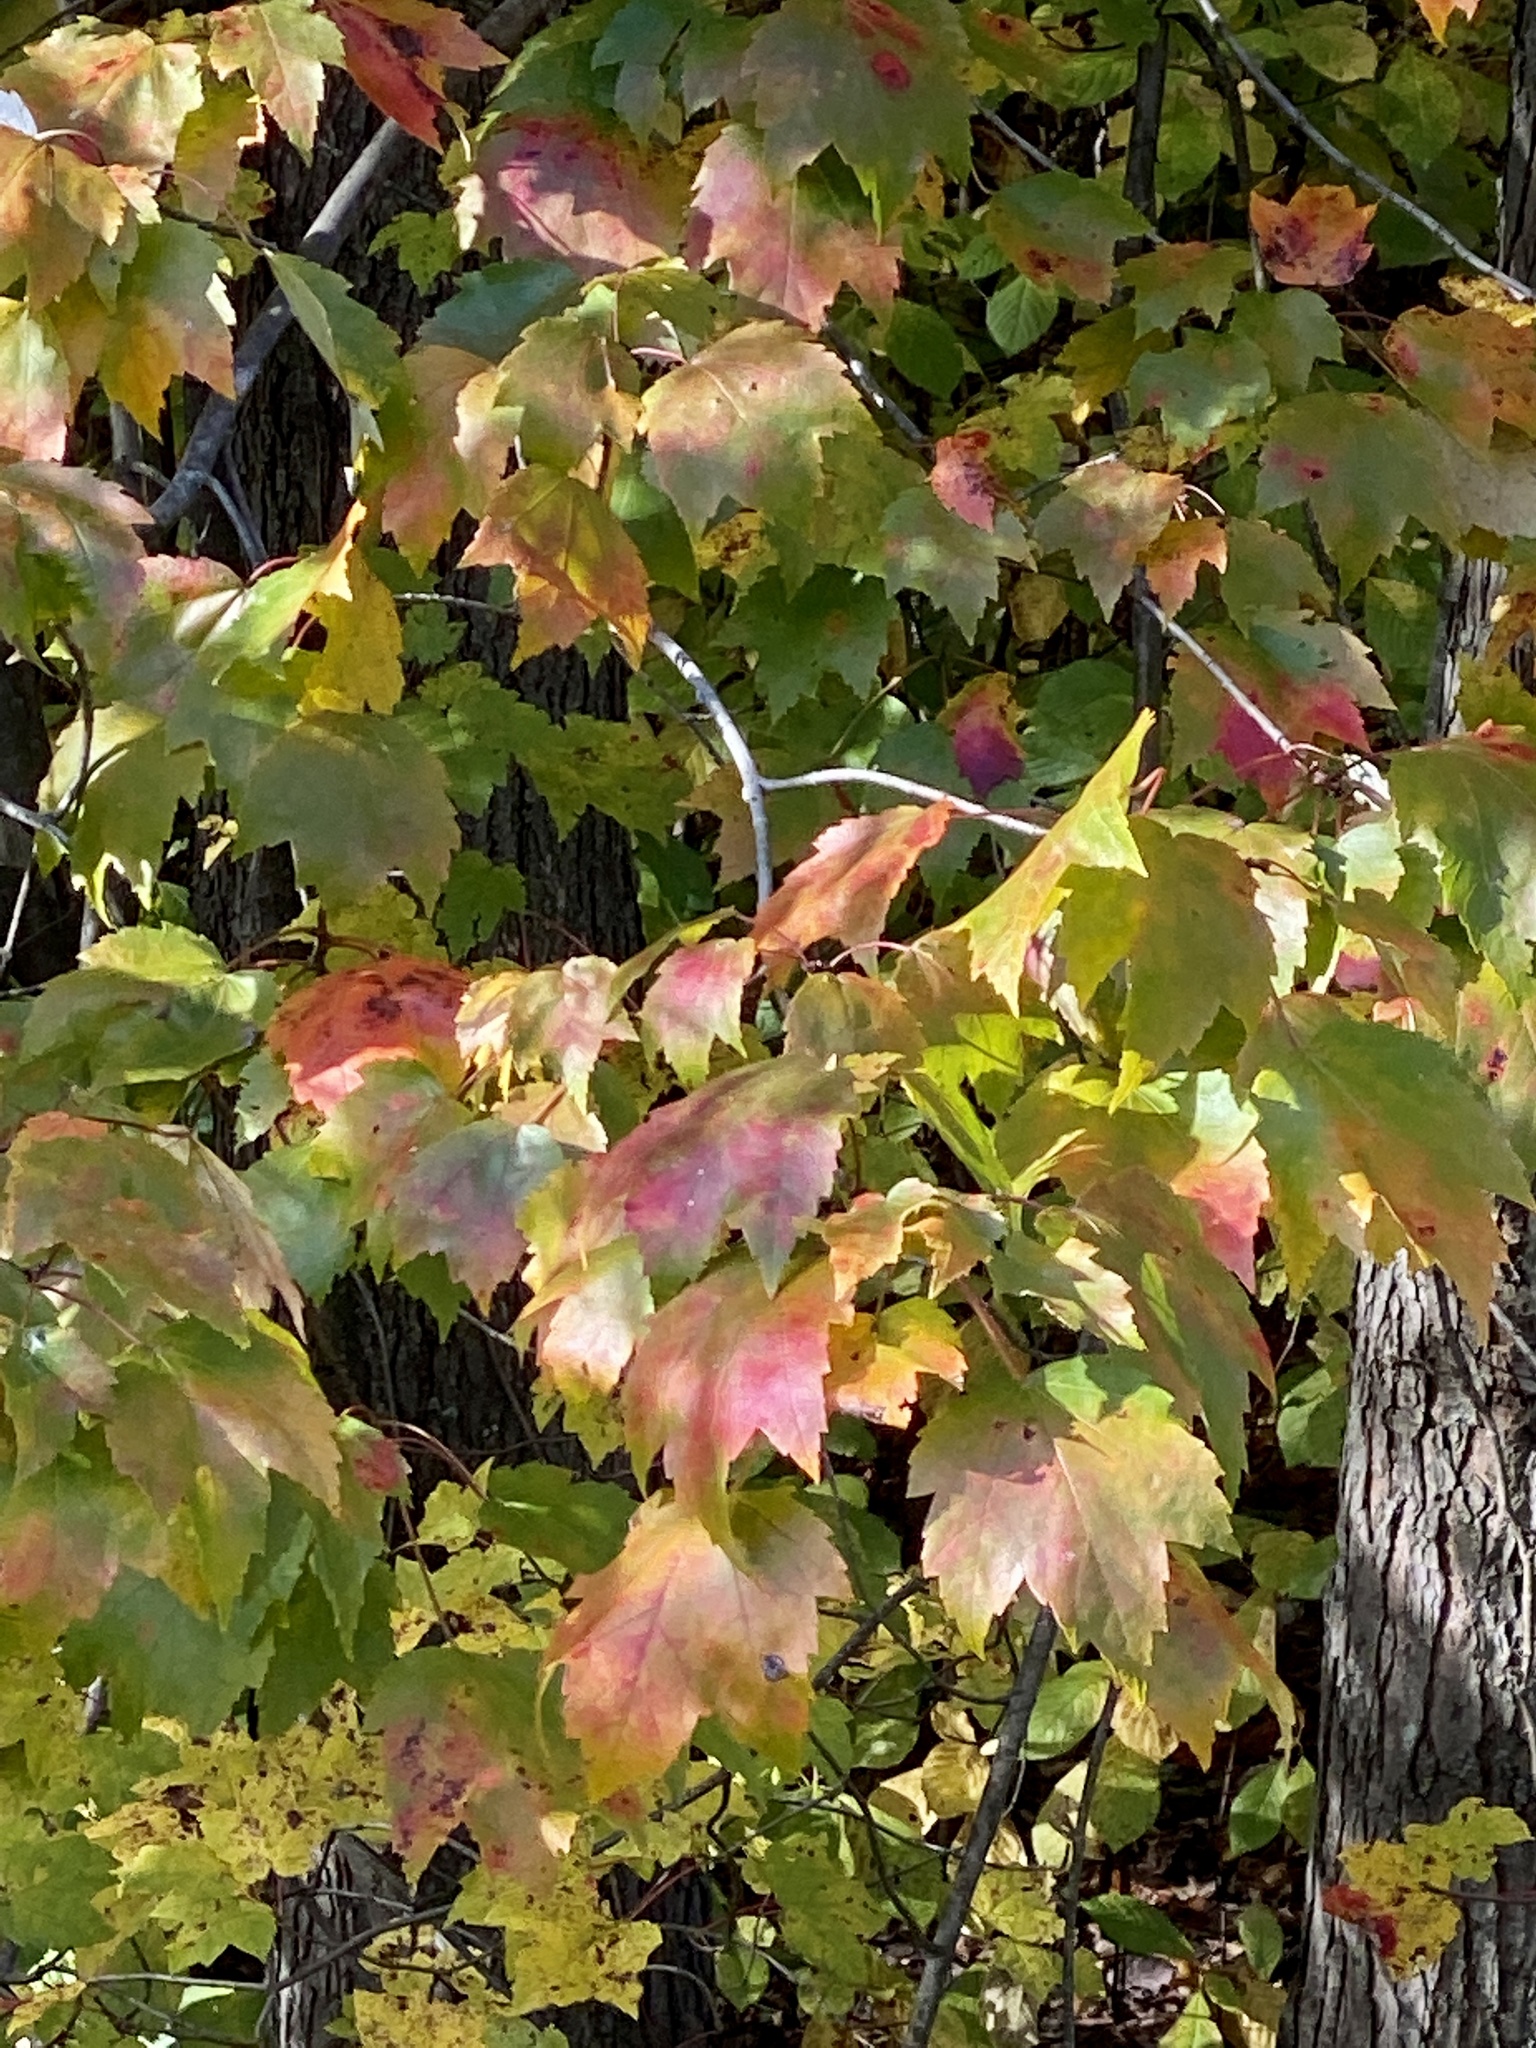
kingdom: Plantae
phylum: Tracheophyta
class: Magnoliopsida
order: Sapindales
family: Sapindaceae
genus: Acer
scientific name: Acer rubrum
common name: Red maple
